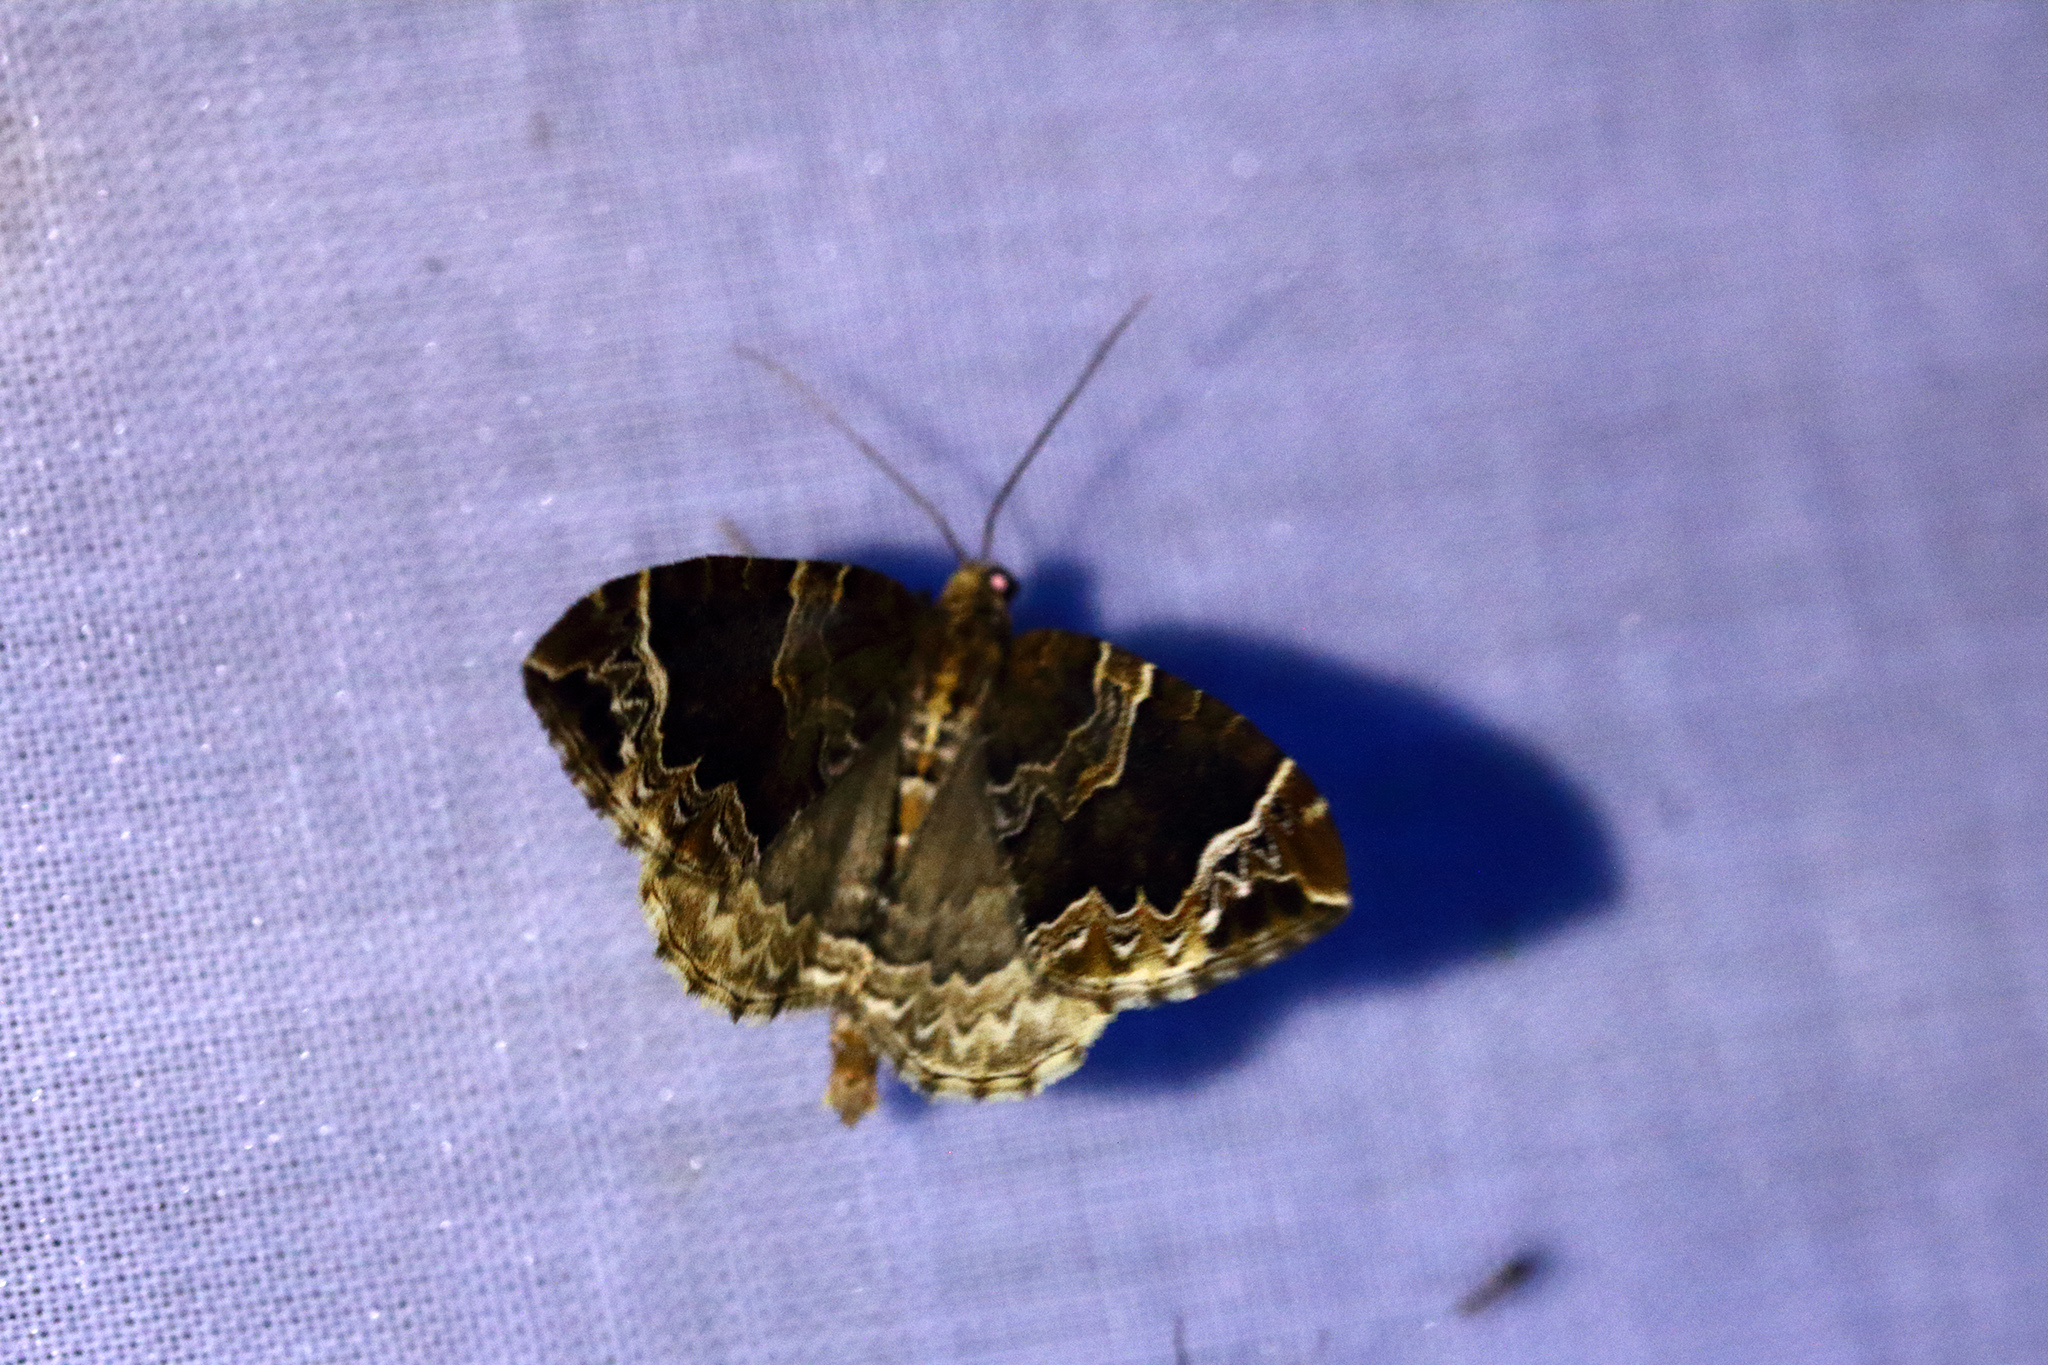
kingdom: Animalia
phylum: Arthropoda
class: Insecta
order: Lepidoptera
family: Geometridae
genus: Eulithis
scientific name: Eulithis prunata
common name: Phoenix
